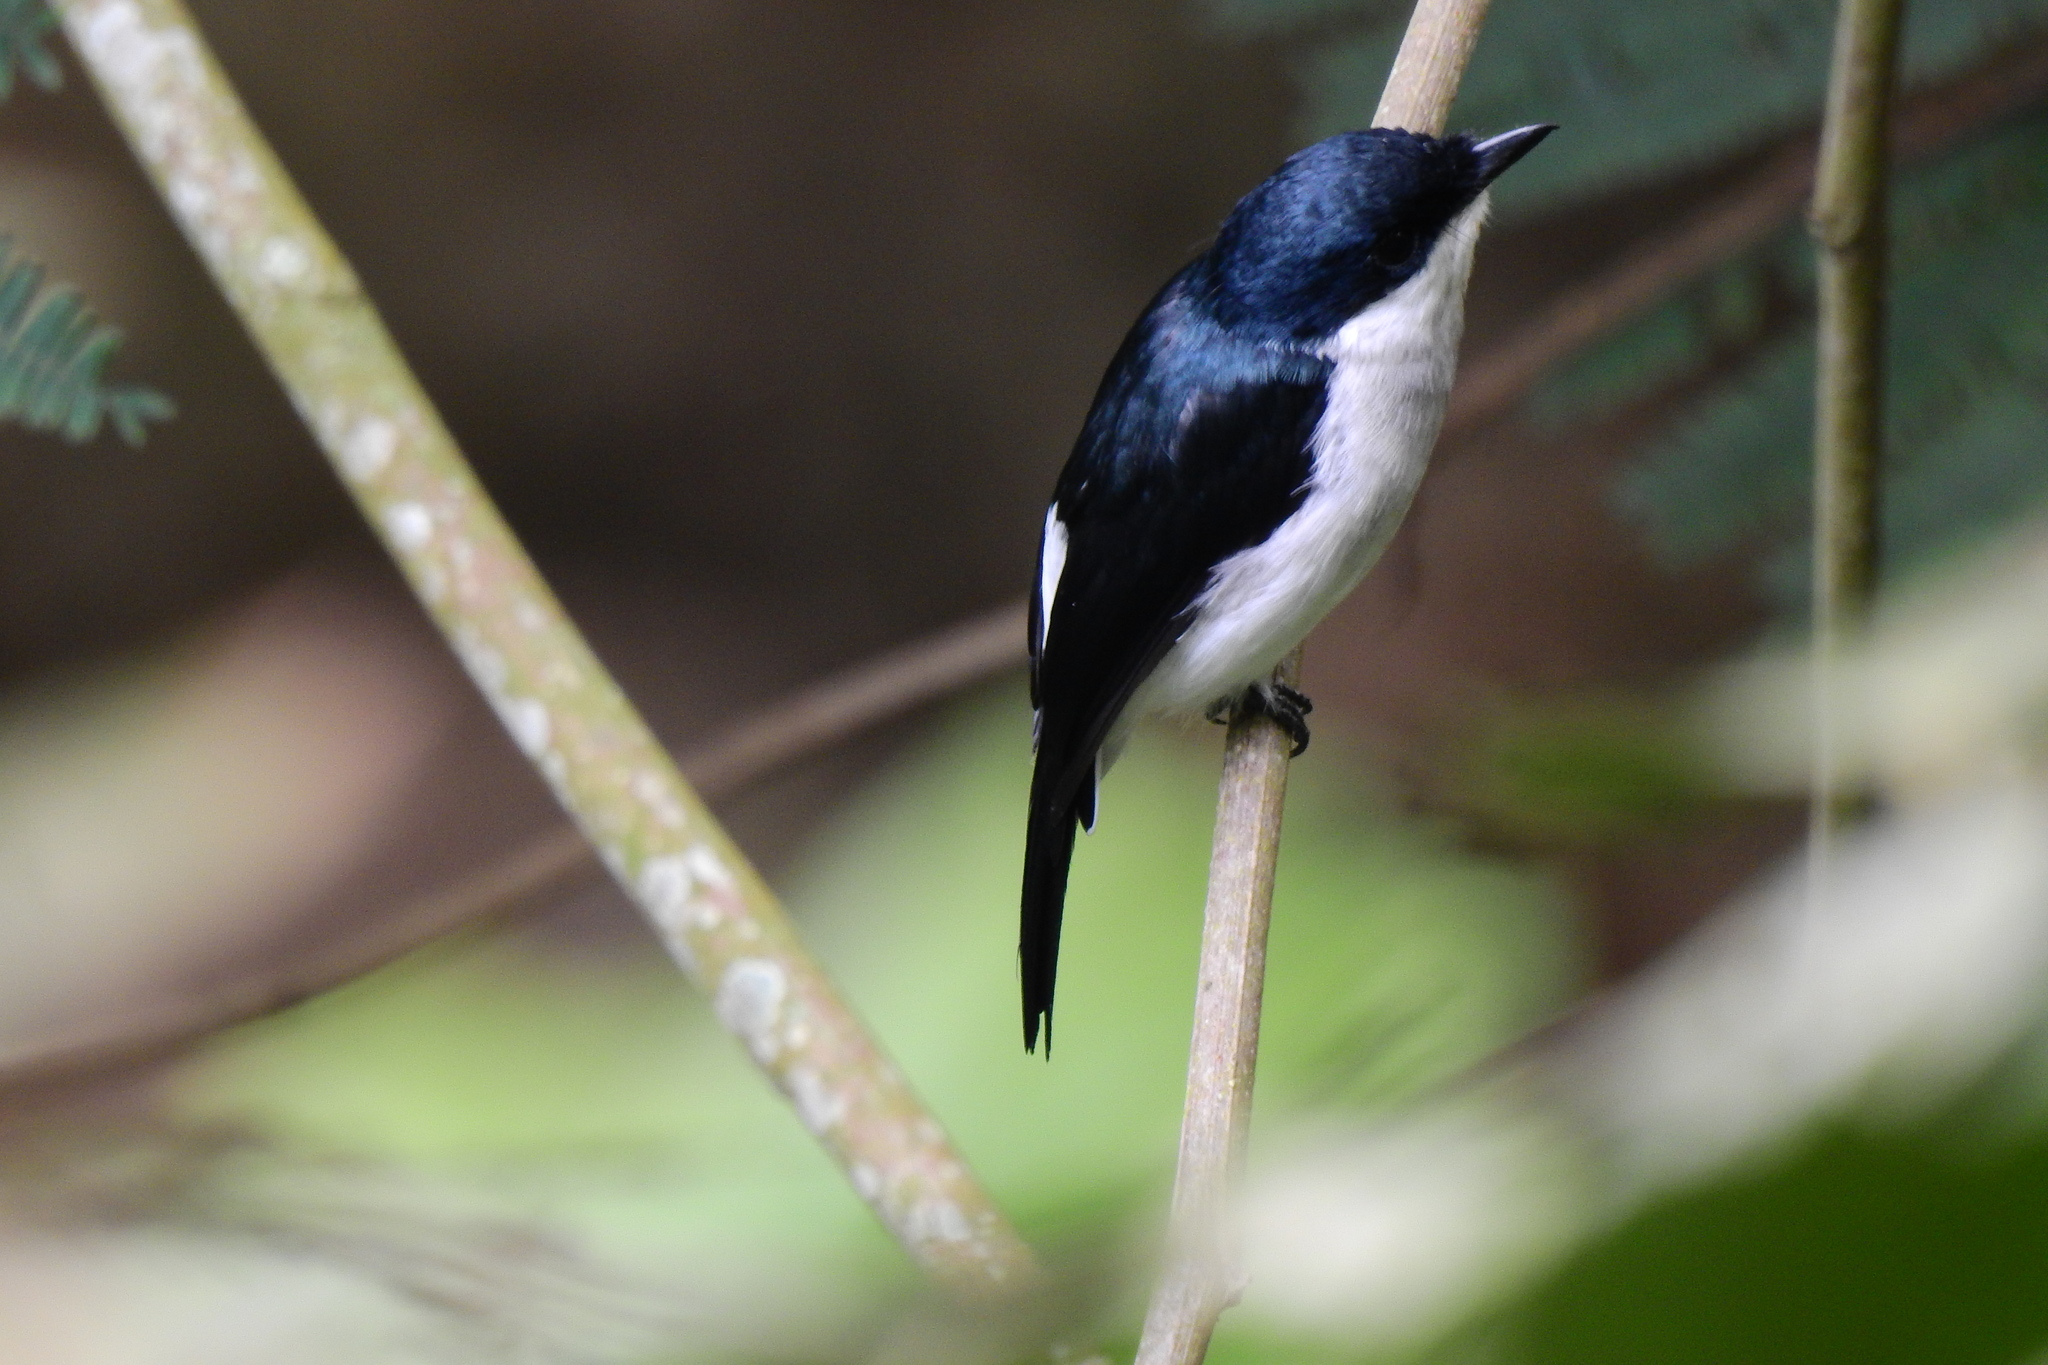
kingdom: Animalia
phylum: Chordata
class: Aves
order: Passeriformes
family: Tephrodornithidae
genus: Hemipus
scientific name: Hemipus hirundinaceus
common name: Black-winged flycatcher-shrike
